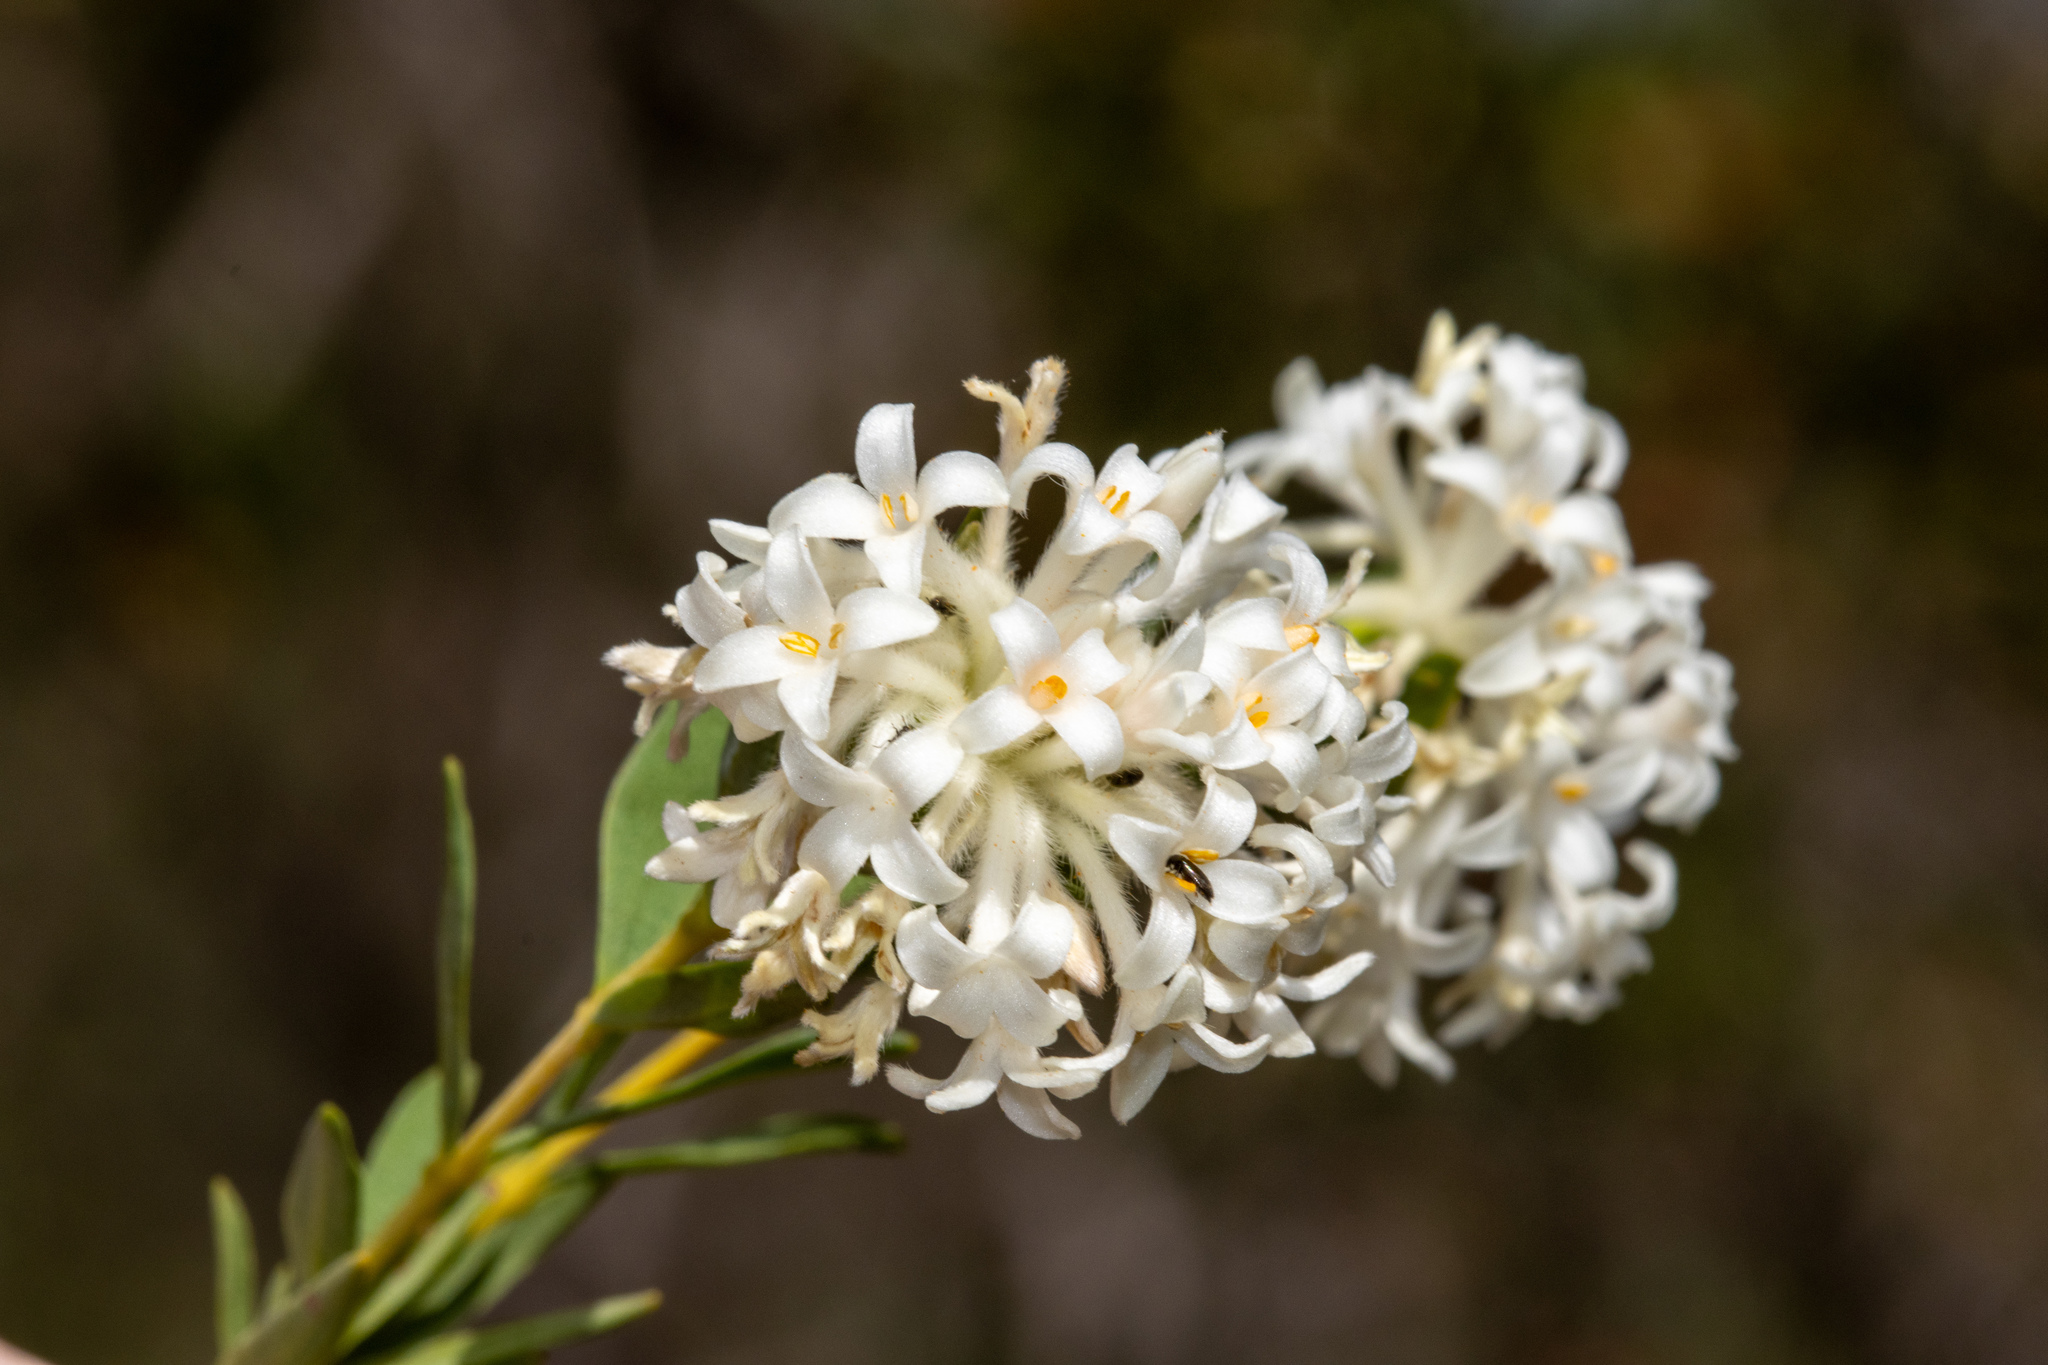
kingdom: Plantae
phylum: Tracheophyta
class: Magnoliopsida
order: Malvales
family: Thymelaeaceae
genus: Pimelea
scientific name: Pimelea stricta
